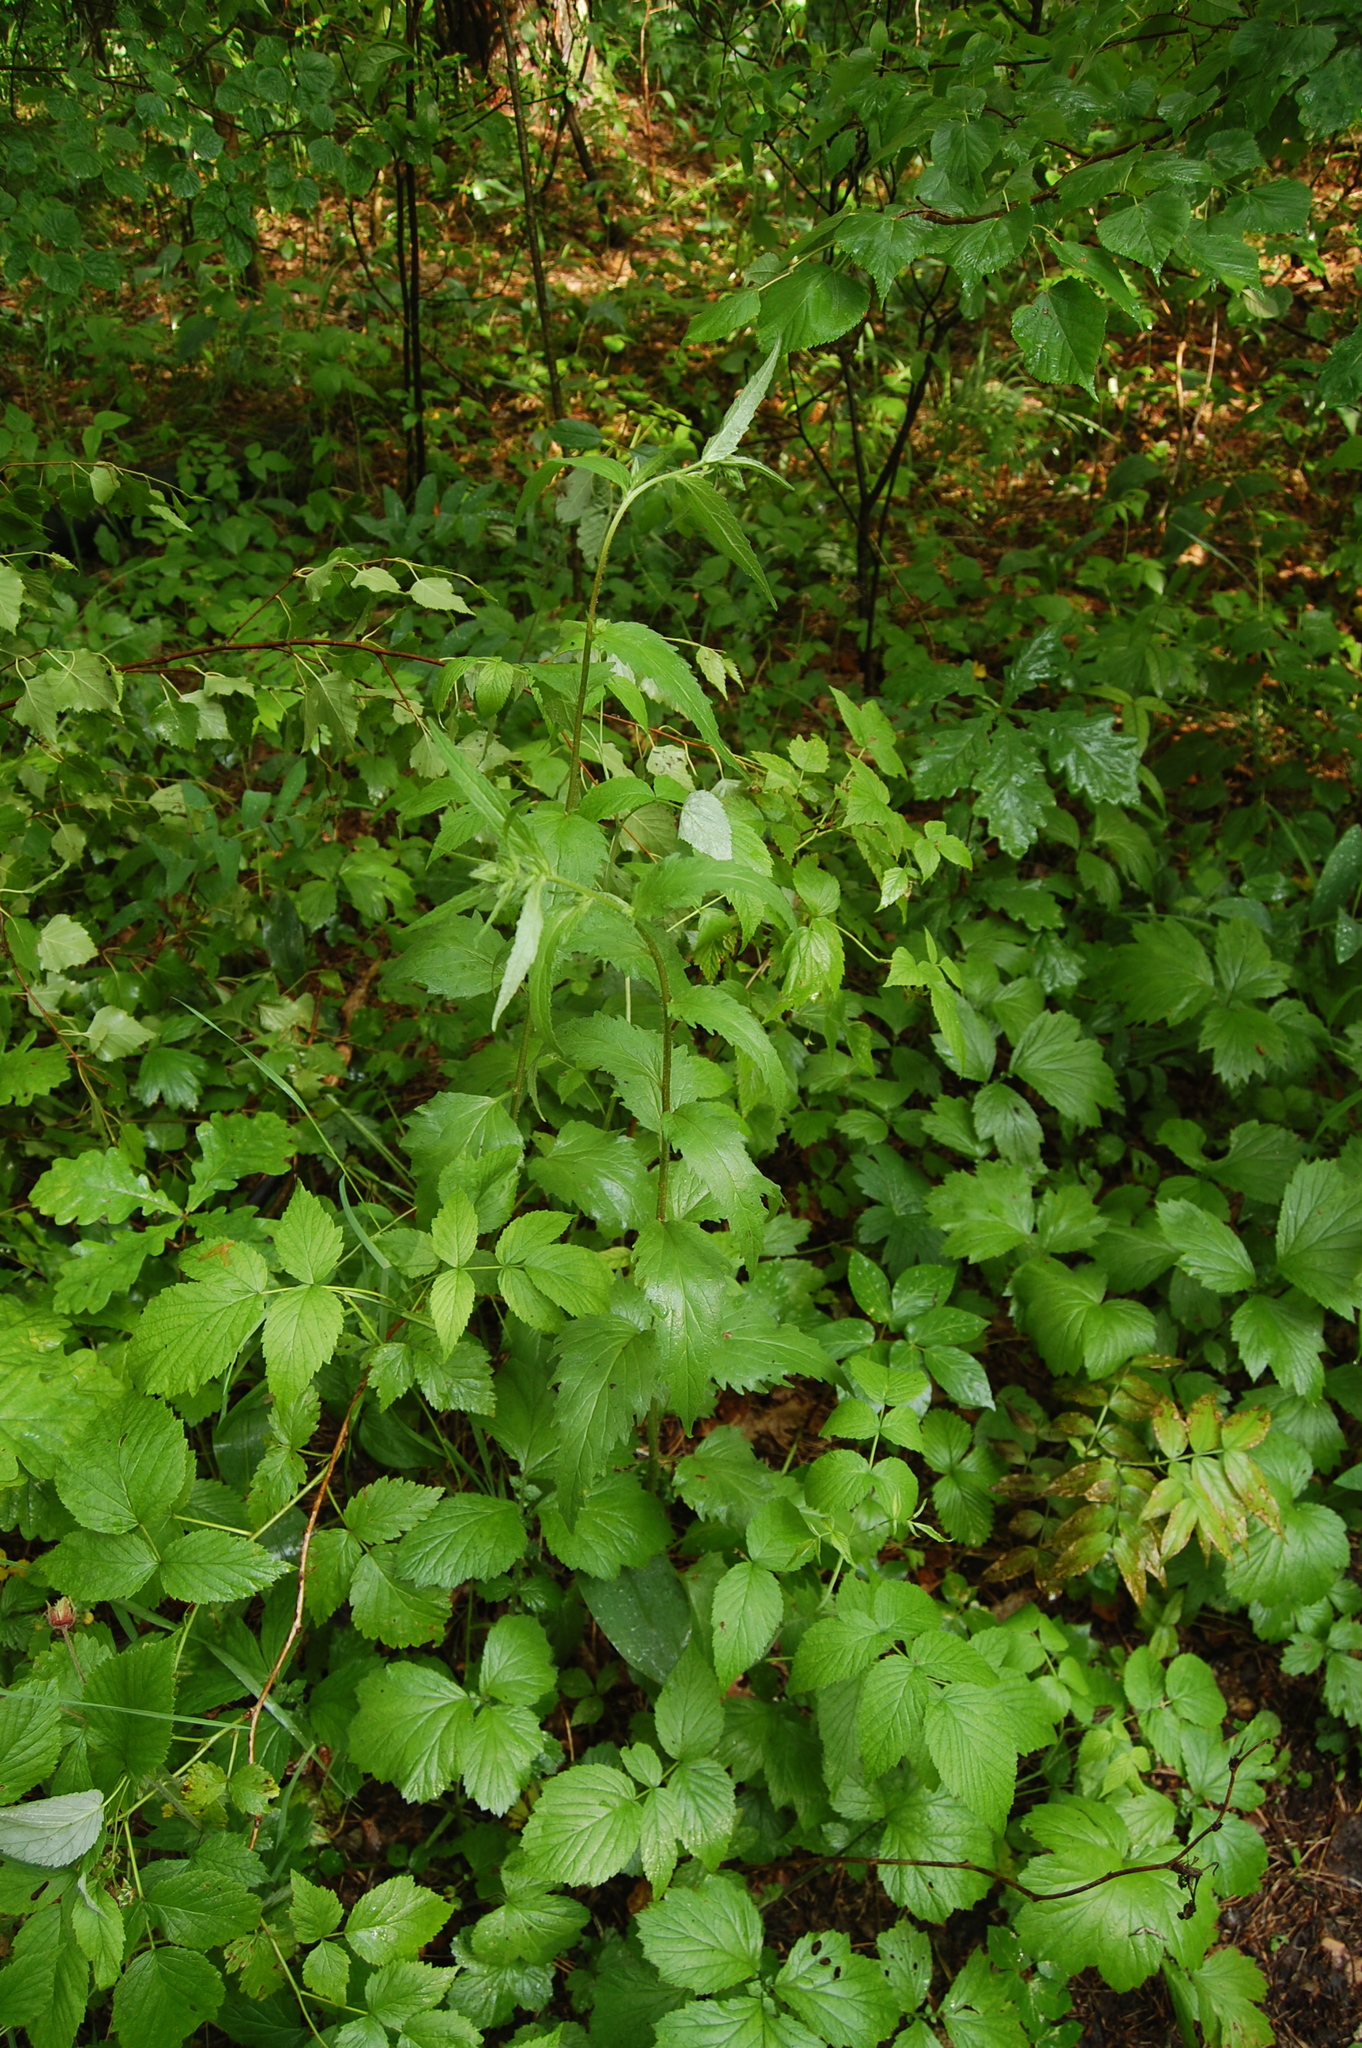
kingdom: Plantae
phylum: Tracheophyta
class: Magnoliopsida
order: Asterales
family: Campanulaceae
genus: Campanula
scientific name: Campanula trachelium
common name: Nettle-leaved bellflower
